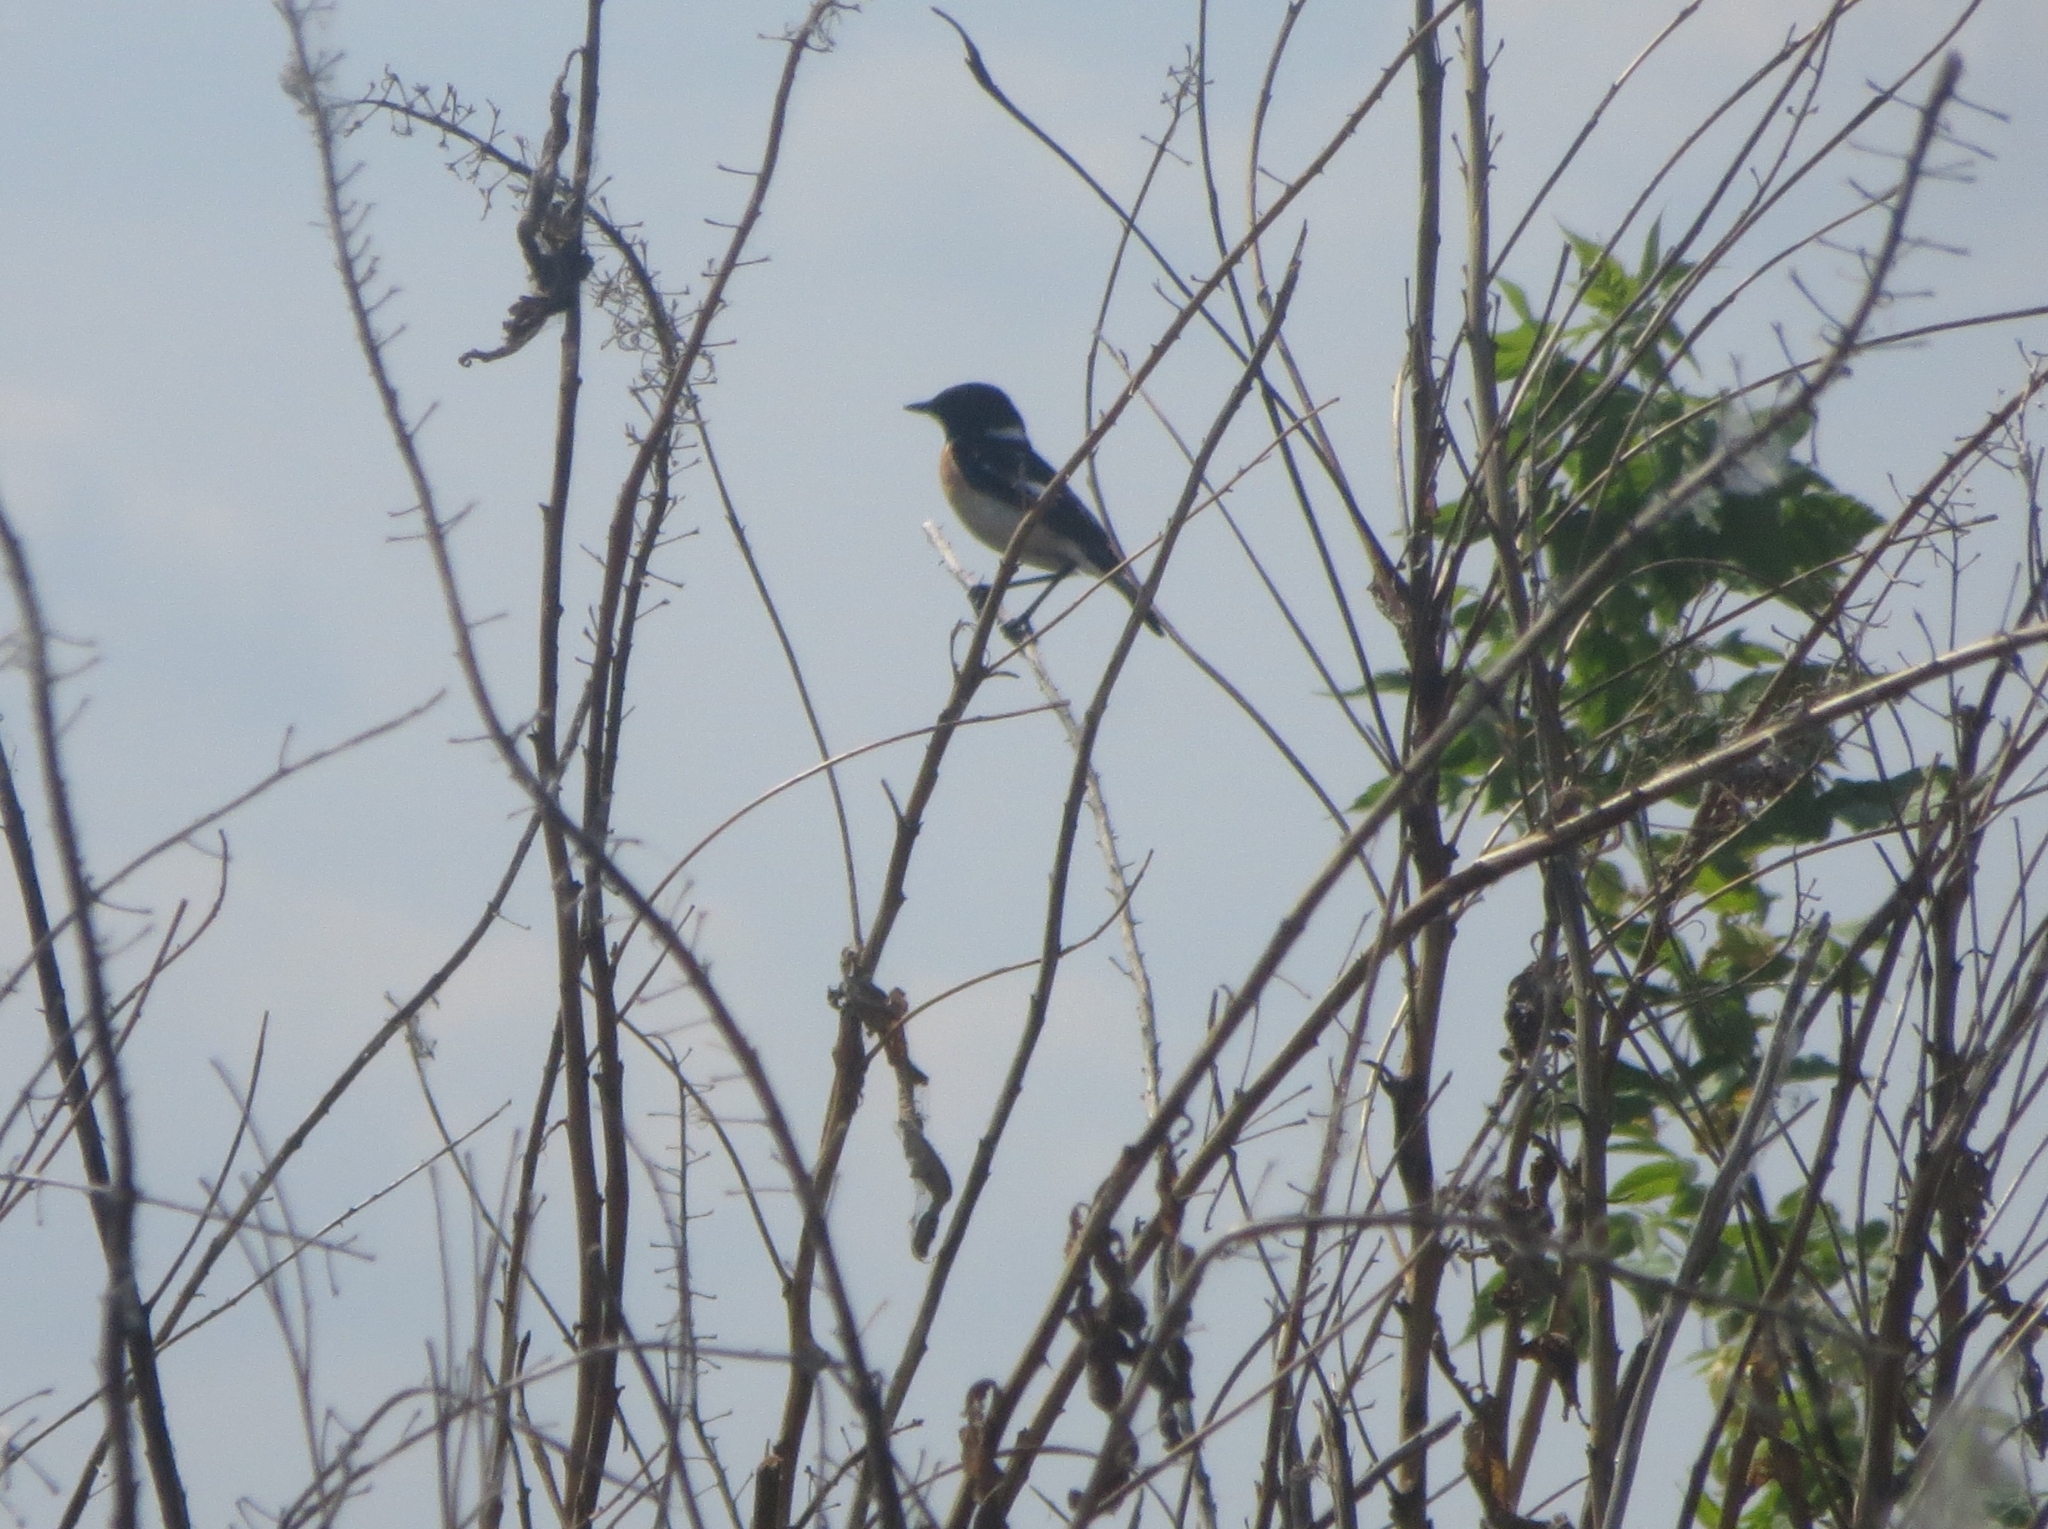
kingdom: Animalia
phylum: Chordata
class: Aves
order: Passeriformes
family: Muscicapidae
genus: Saxicola
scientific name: Saxicola maurus
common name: Siberian stonechat
